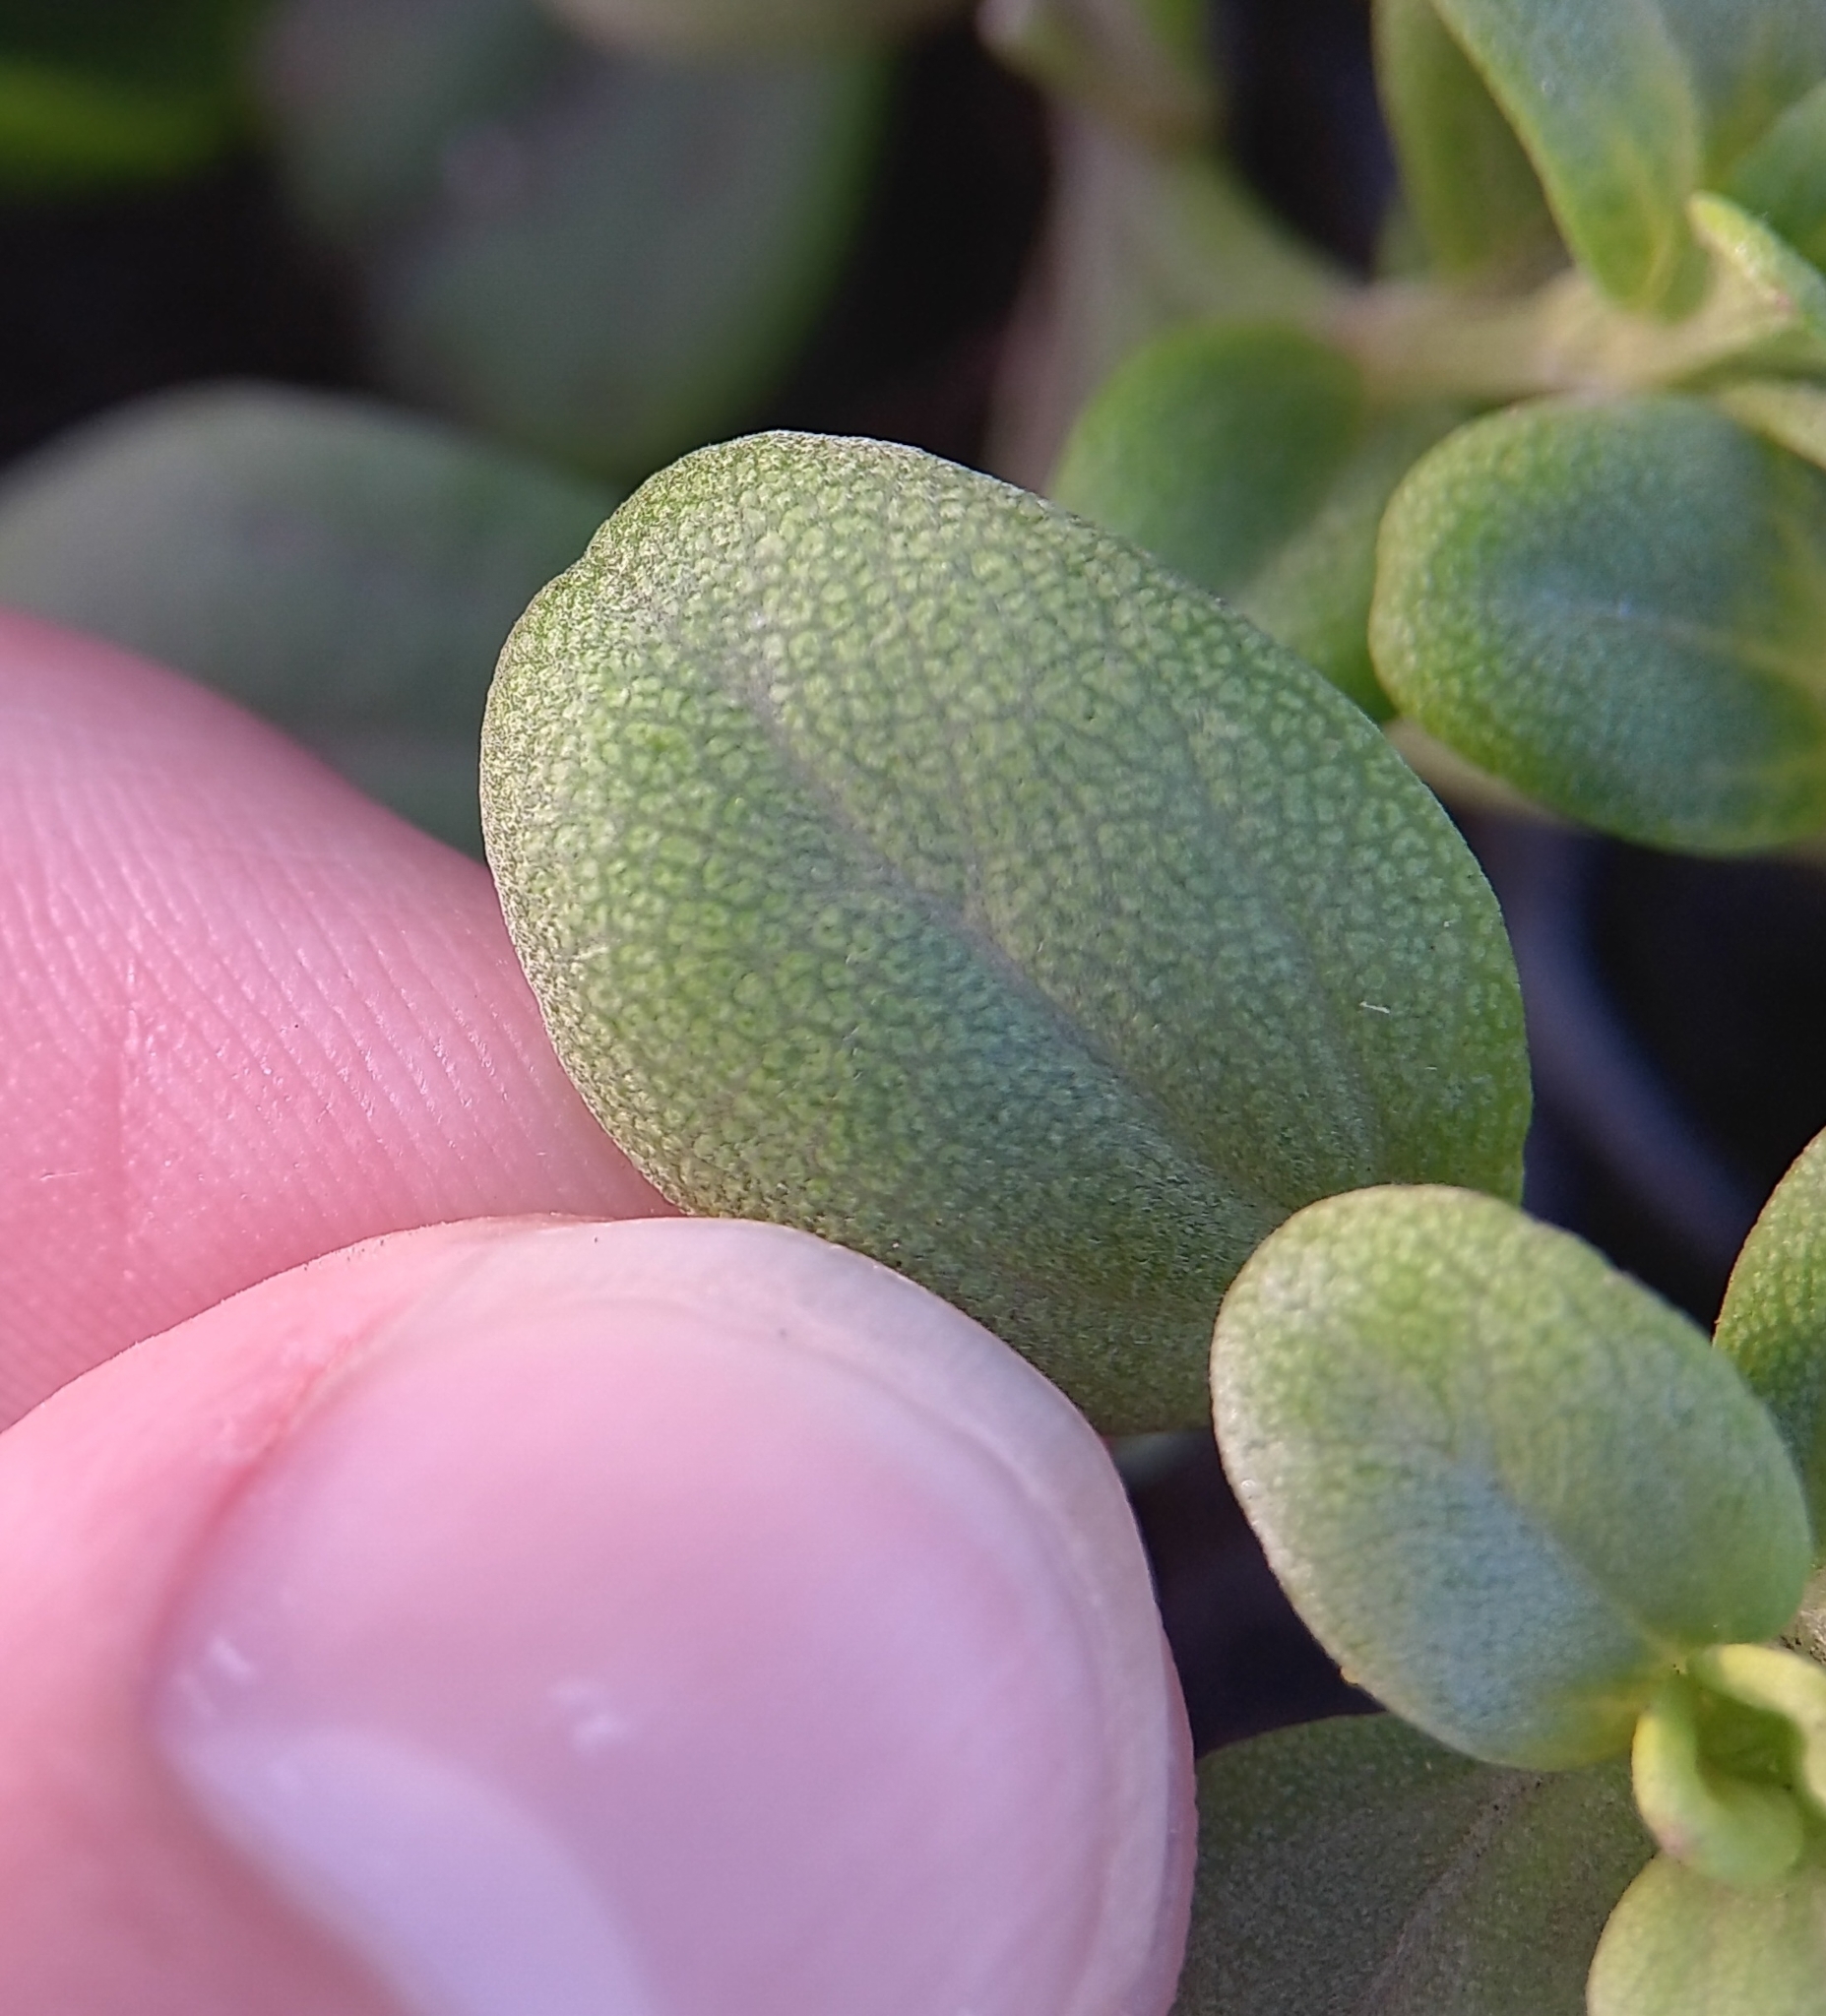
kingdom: Plantae
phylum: Tracheophyta
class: Magnoliopsida
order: Asterales
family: Asteraceae
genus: Lipochaeta
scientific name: Lipochaeta integrifolia
